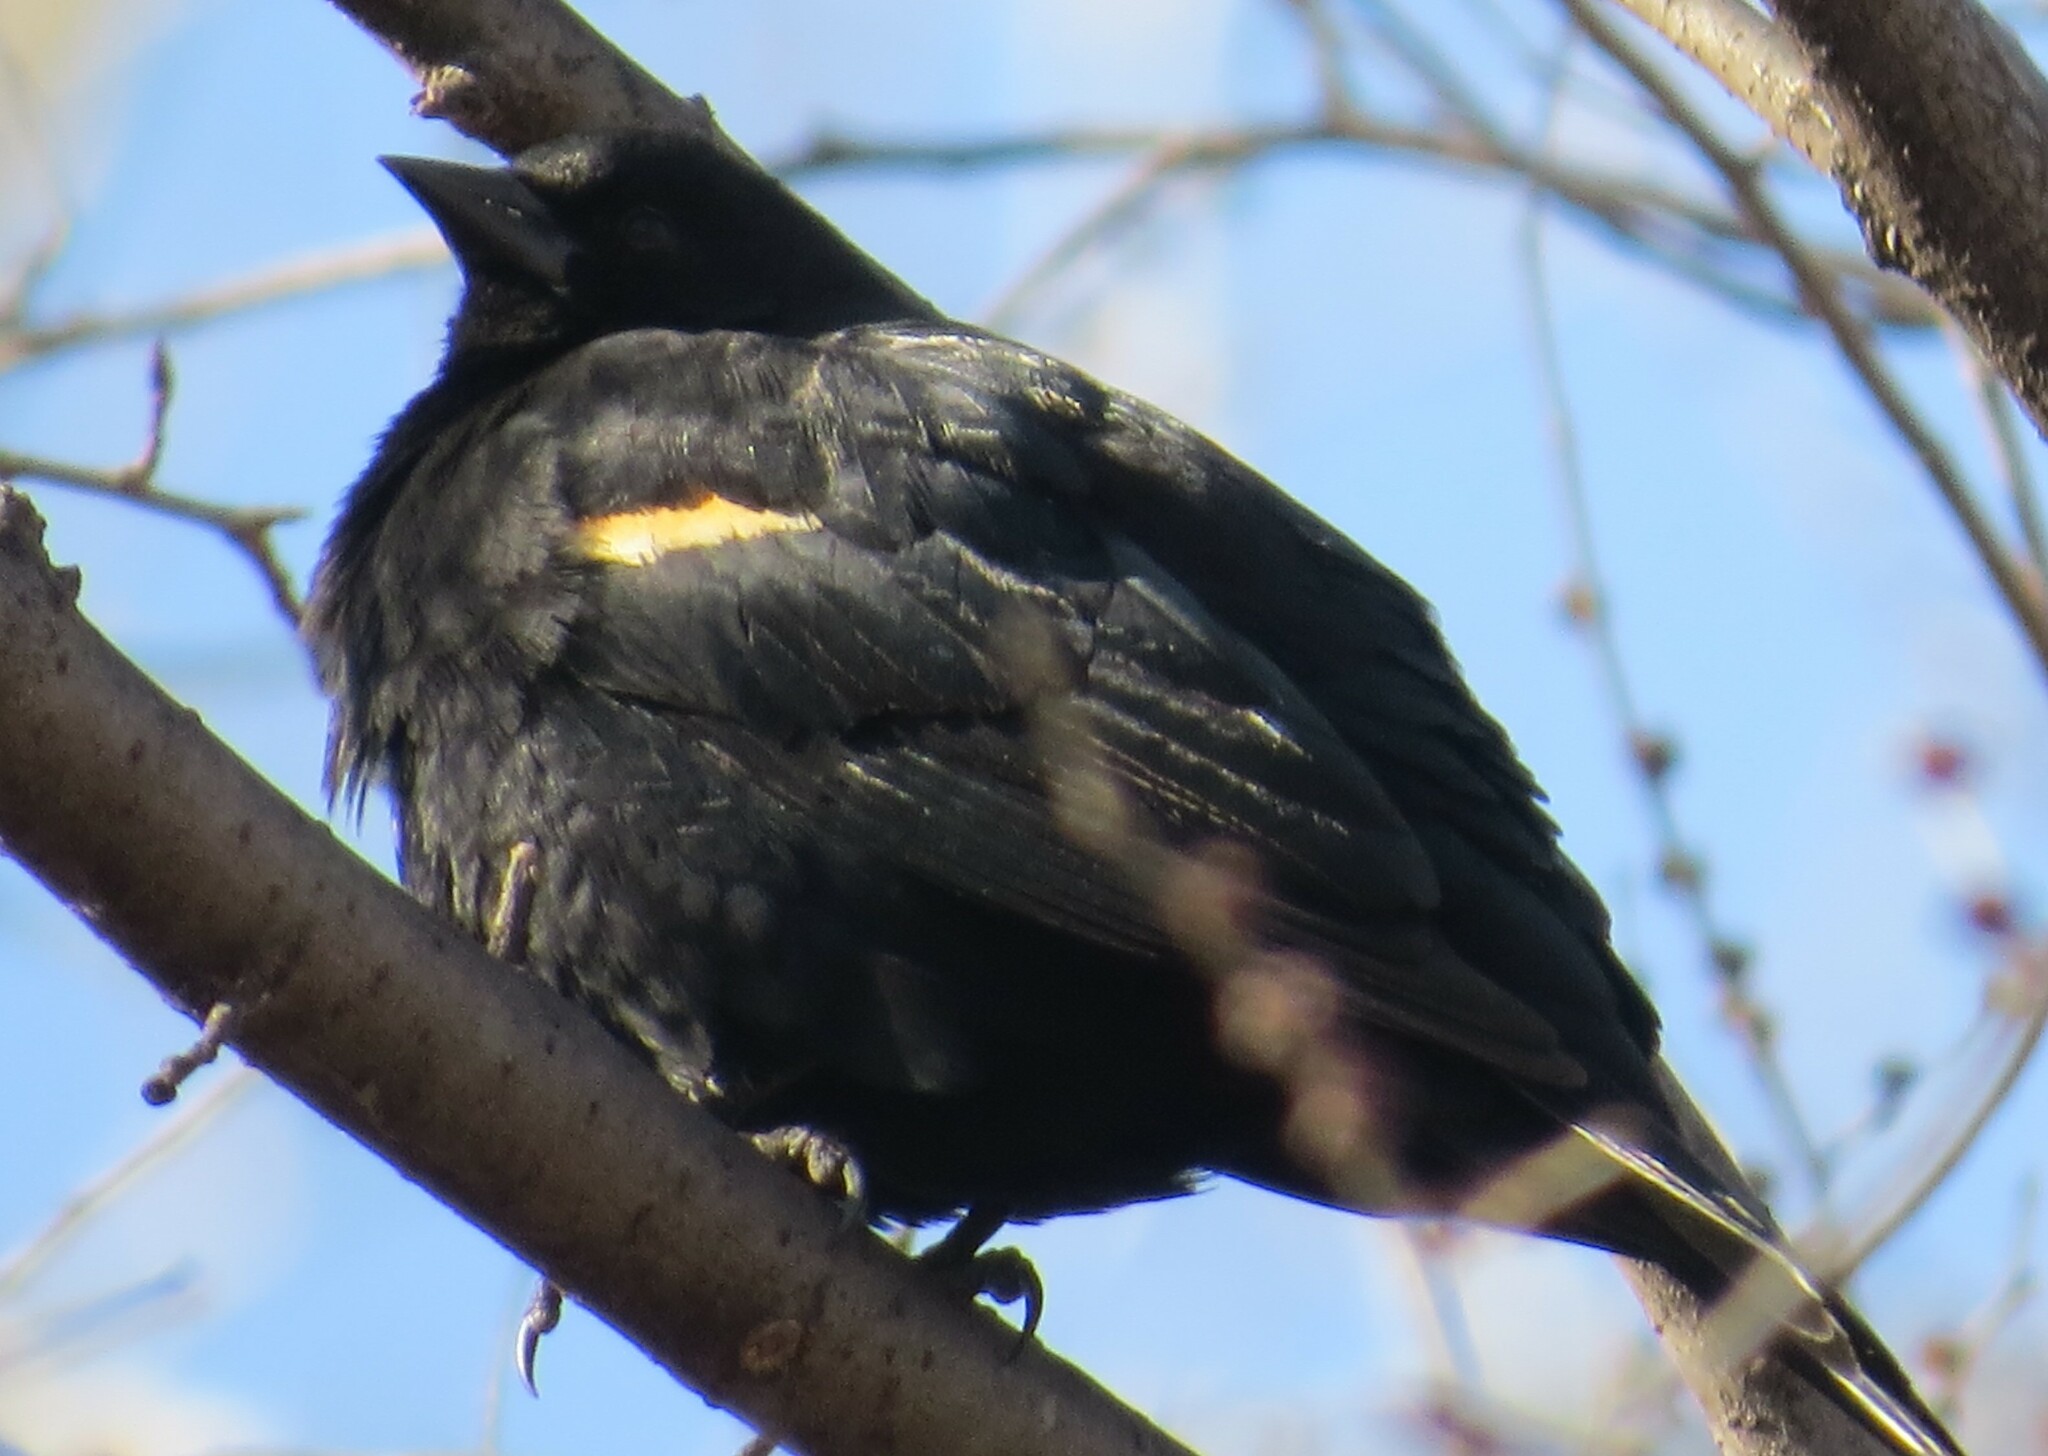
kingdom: Animalia
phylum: Chordata
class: Aves
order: Passeriformes
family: Icteridae
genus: Agelaius
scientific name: Agelaius phoeniceus
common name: Red-winged blackbird
